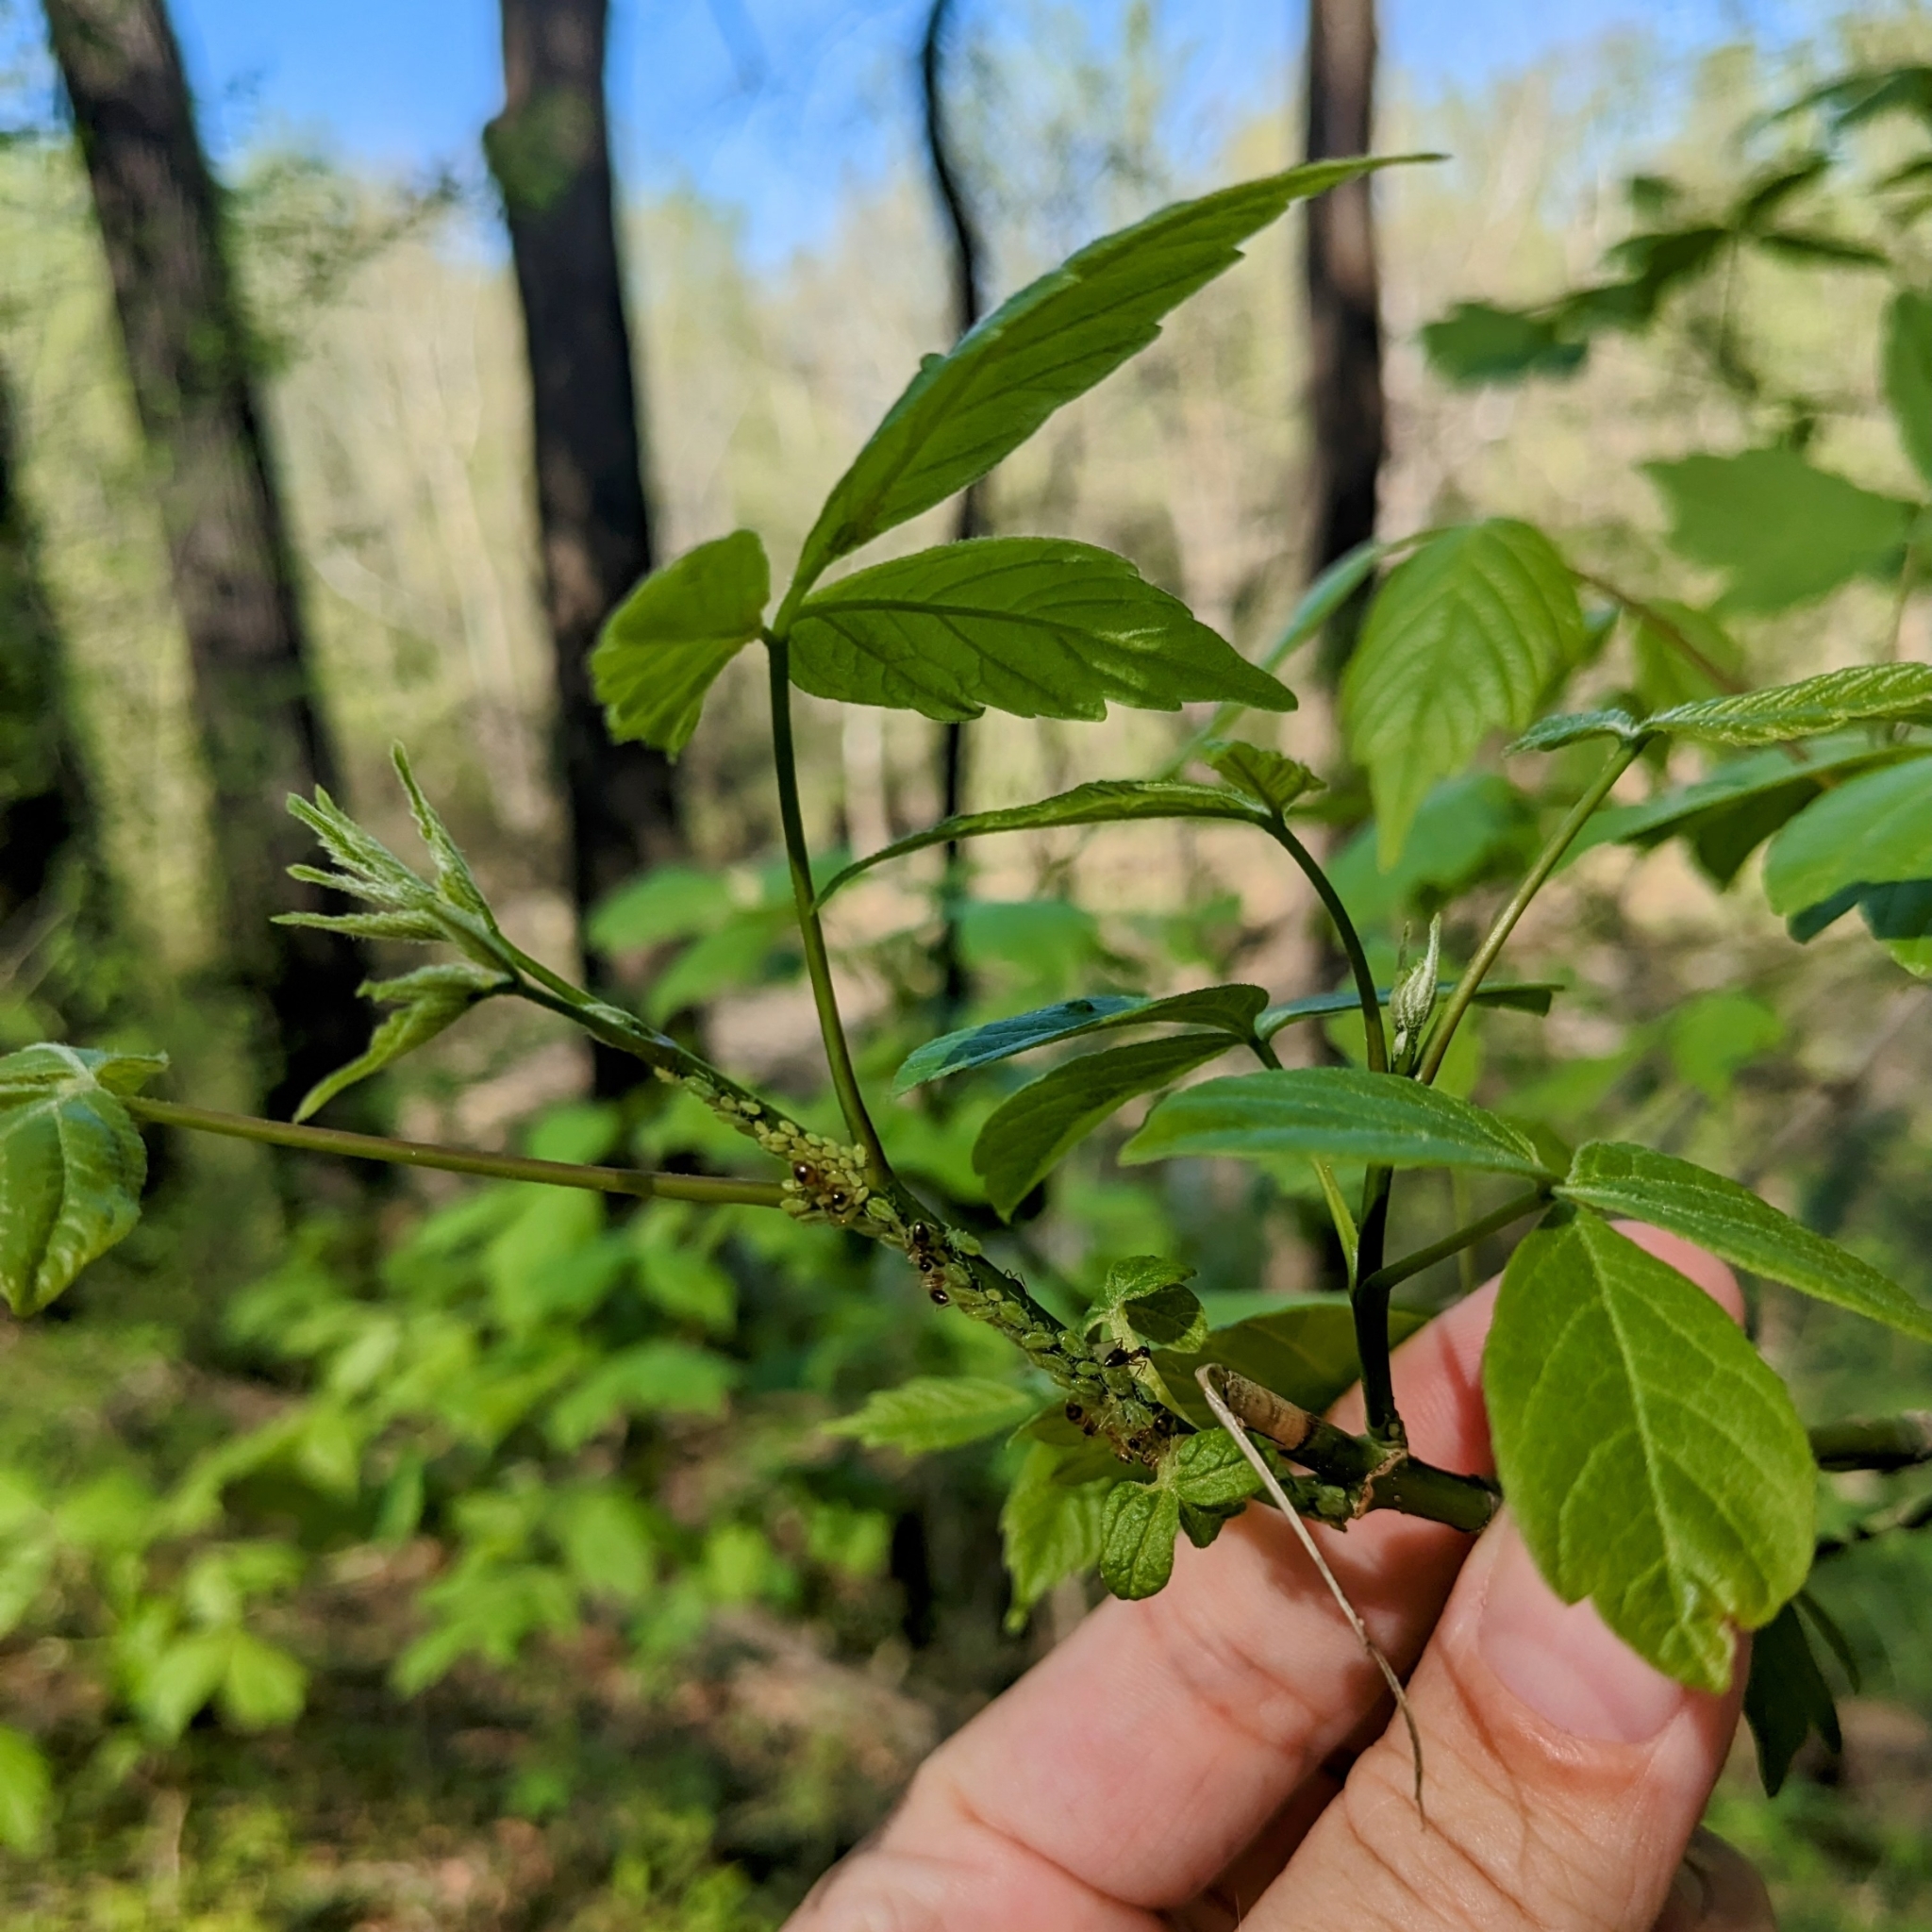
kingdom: Plantae
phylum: Tracheophyta
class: Magnoliopsida
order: Sapindales
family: Sapindaceae
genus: Acer
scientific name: Acer negundo
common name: Ashleaf maple
